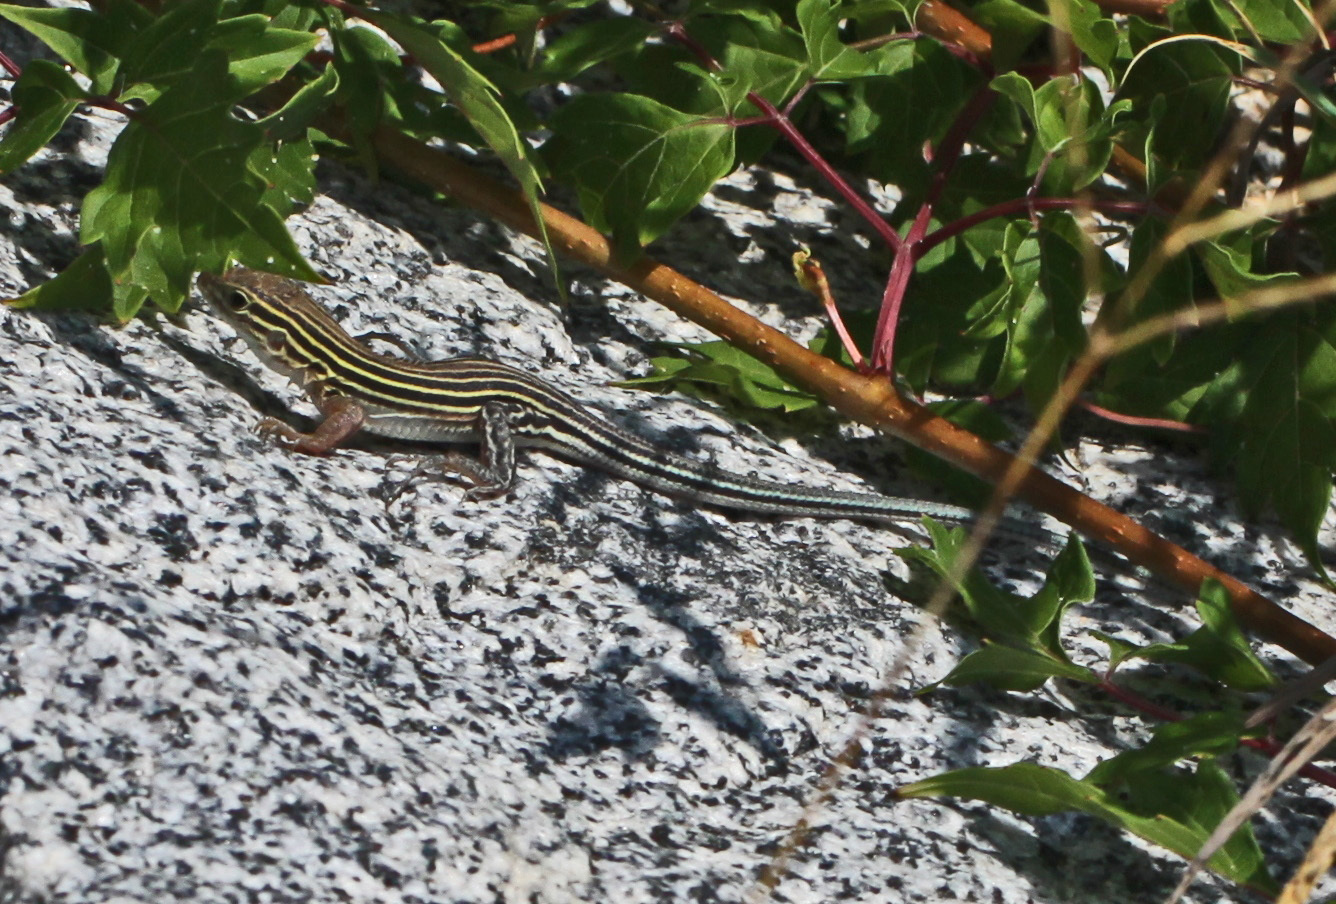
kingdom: Animalia
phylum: Chordata
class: Squamata
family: Teiidae
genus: Aspidoscelis
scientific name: Aspidoscelis sexlineatus
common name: Six-lined racerunner
